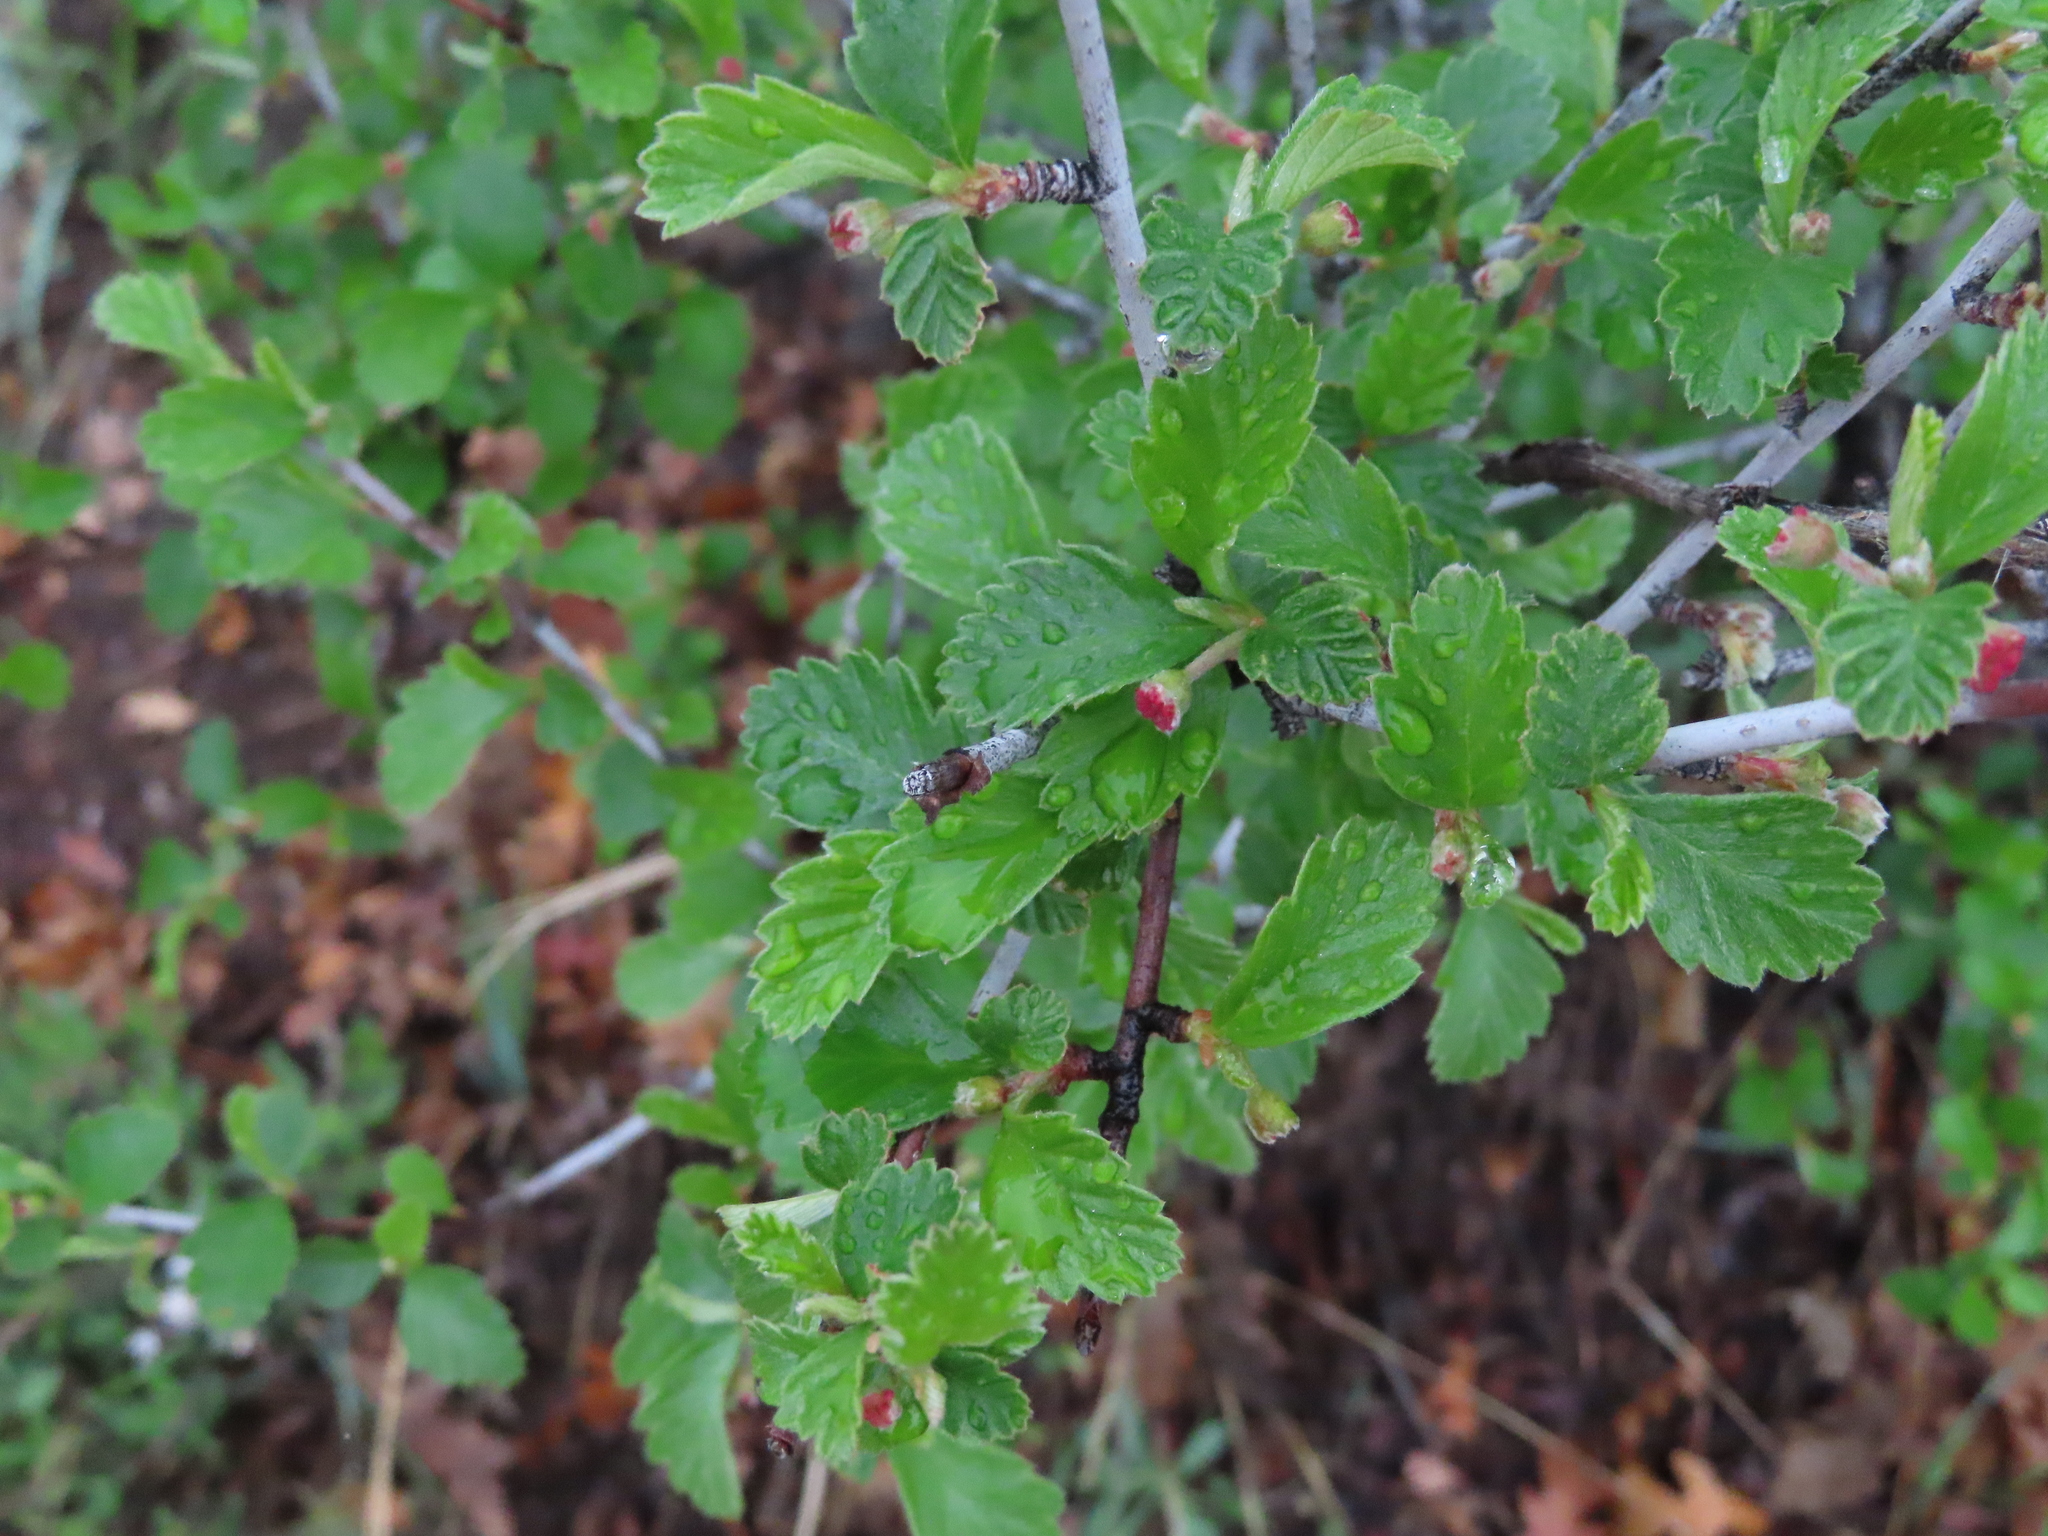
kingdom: Plantae
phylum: Tracheophyta
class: Magnoliopsida
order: Rosales
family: Rosaceae
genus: Cercocarpus
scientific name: Cercocarpus montanus
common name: Alder-leaf cercocarpus
